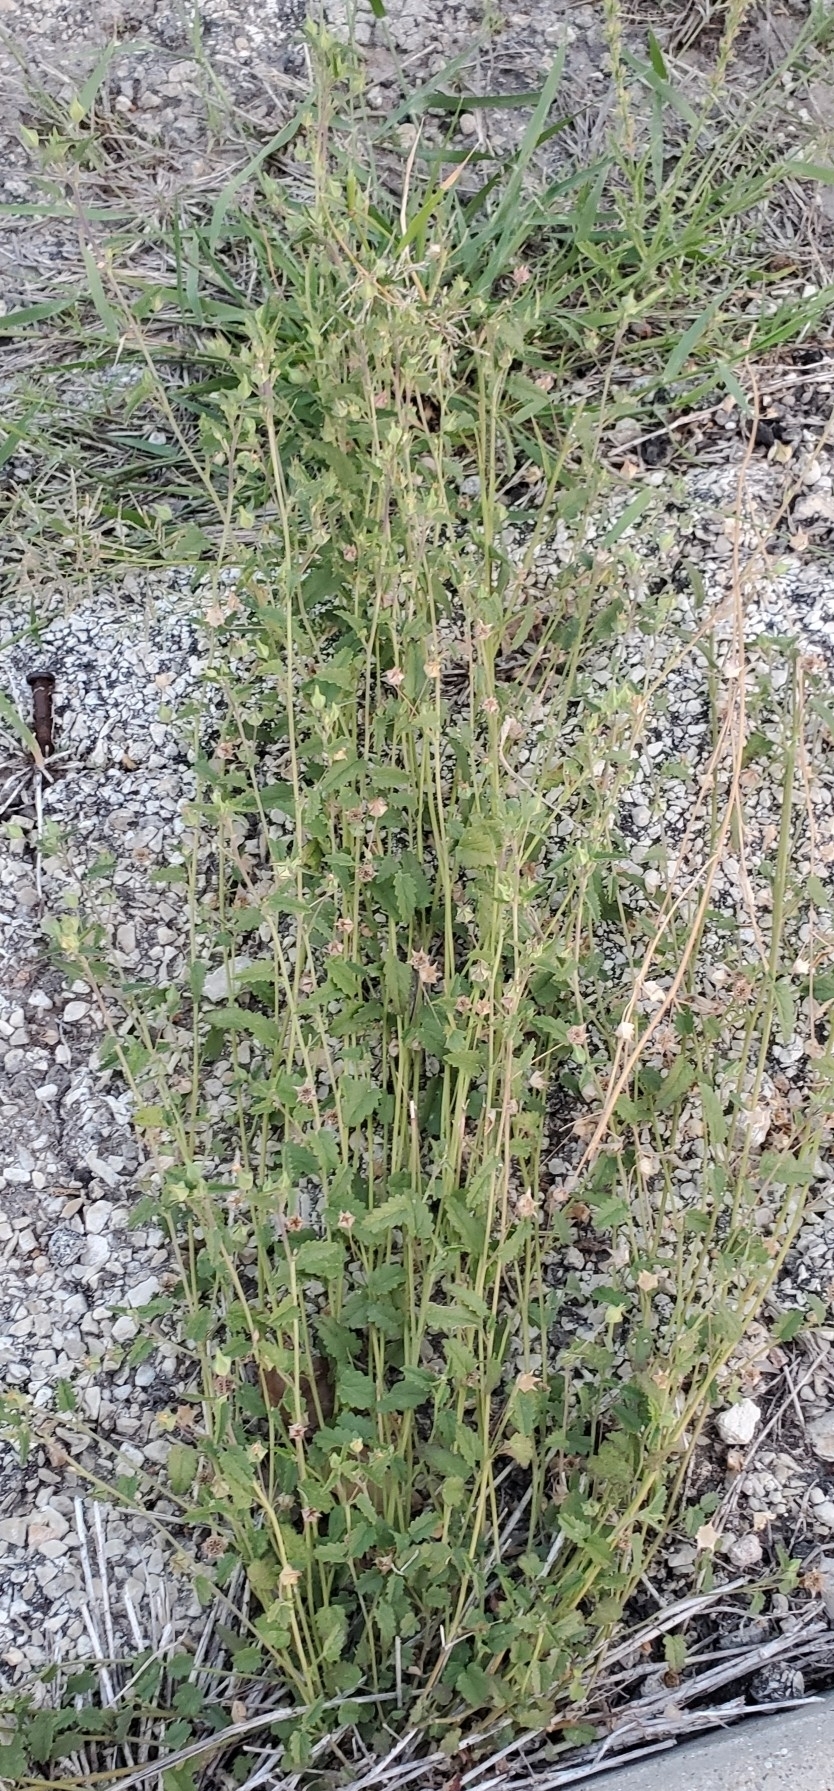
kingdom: Plantae
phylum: Tracheophyta
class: Magnoliopsida
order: Malvales
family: Malvaceae
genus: Sida
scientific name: Sida abutilifolia
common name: Spreading fanpetals
